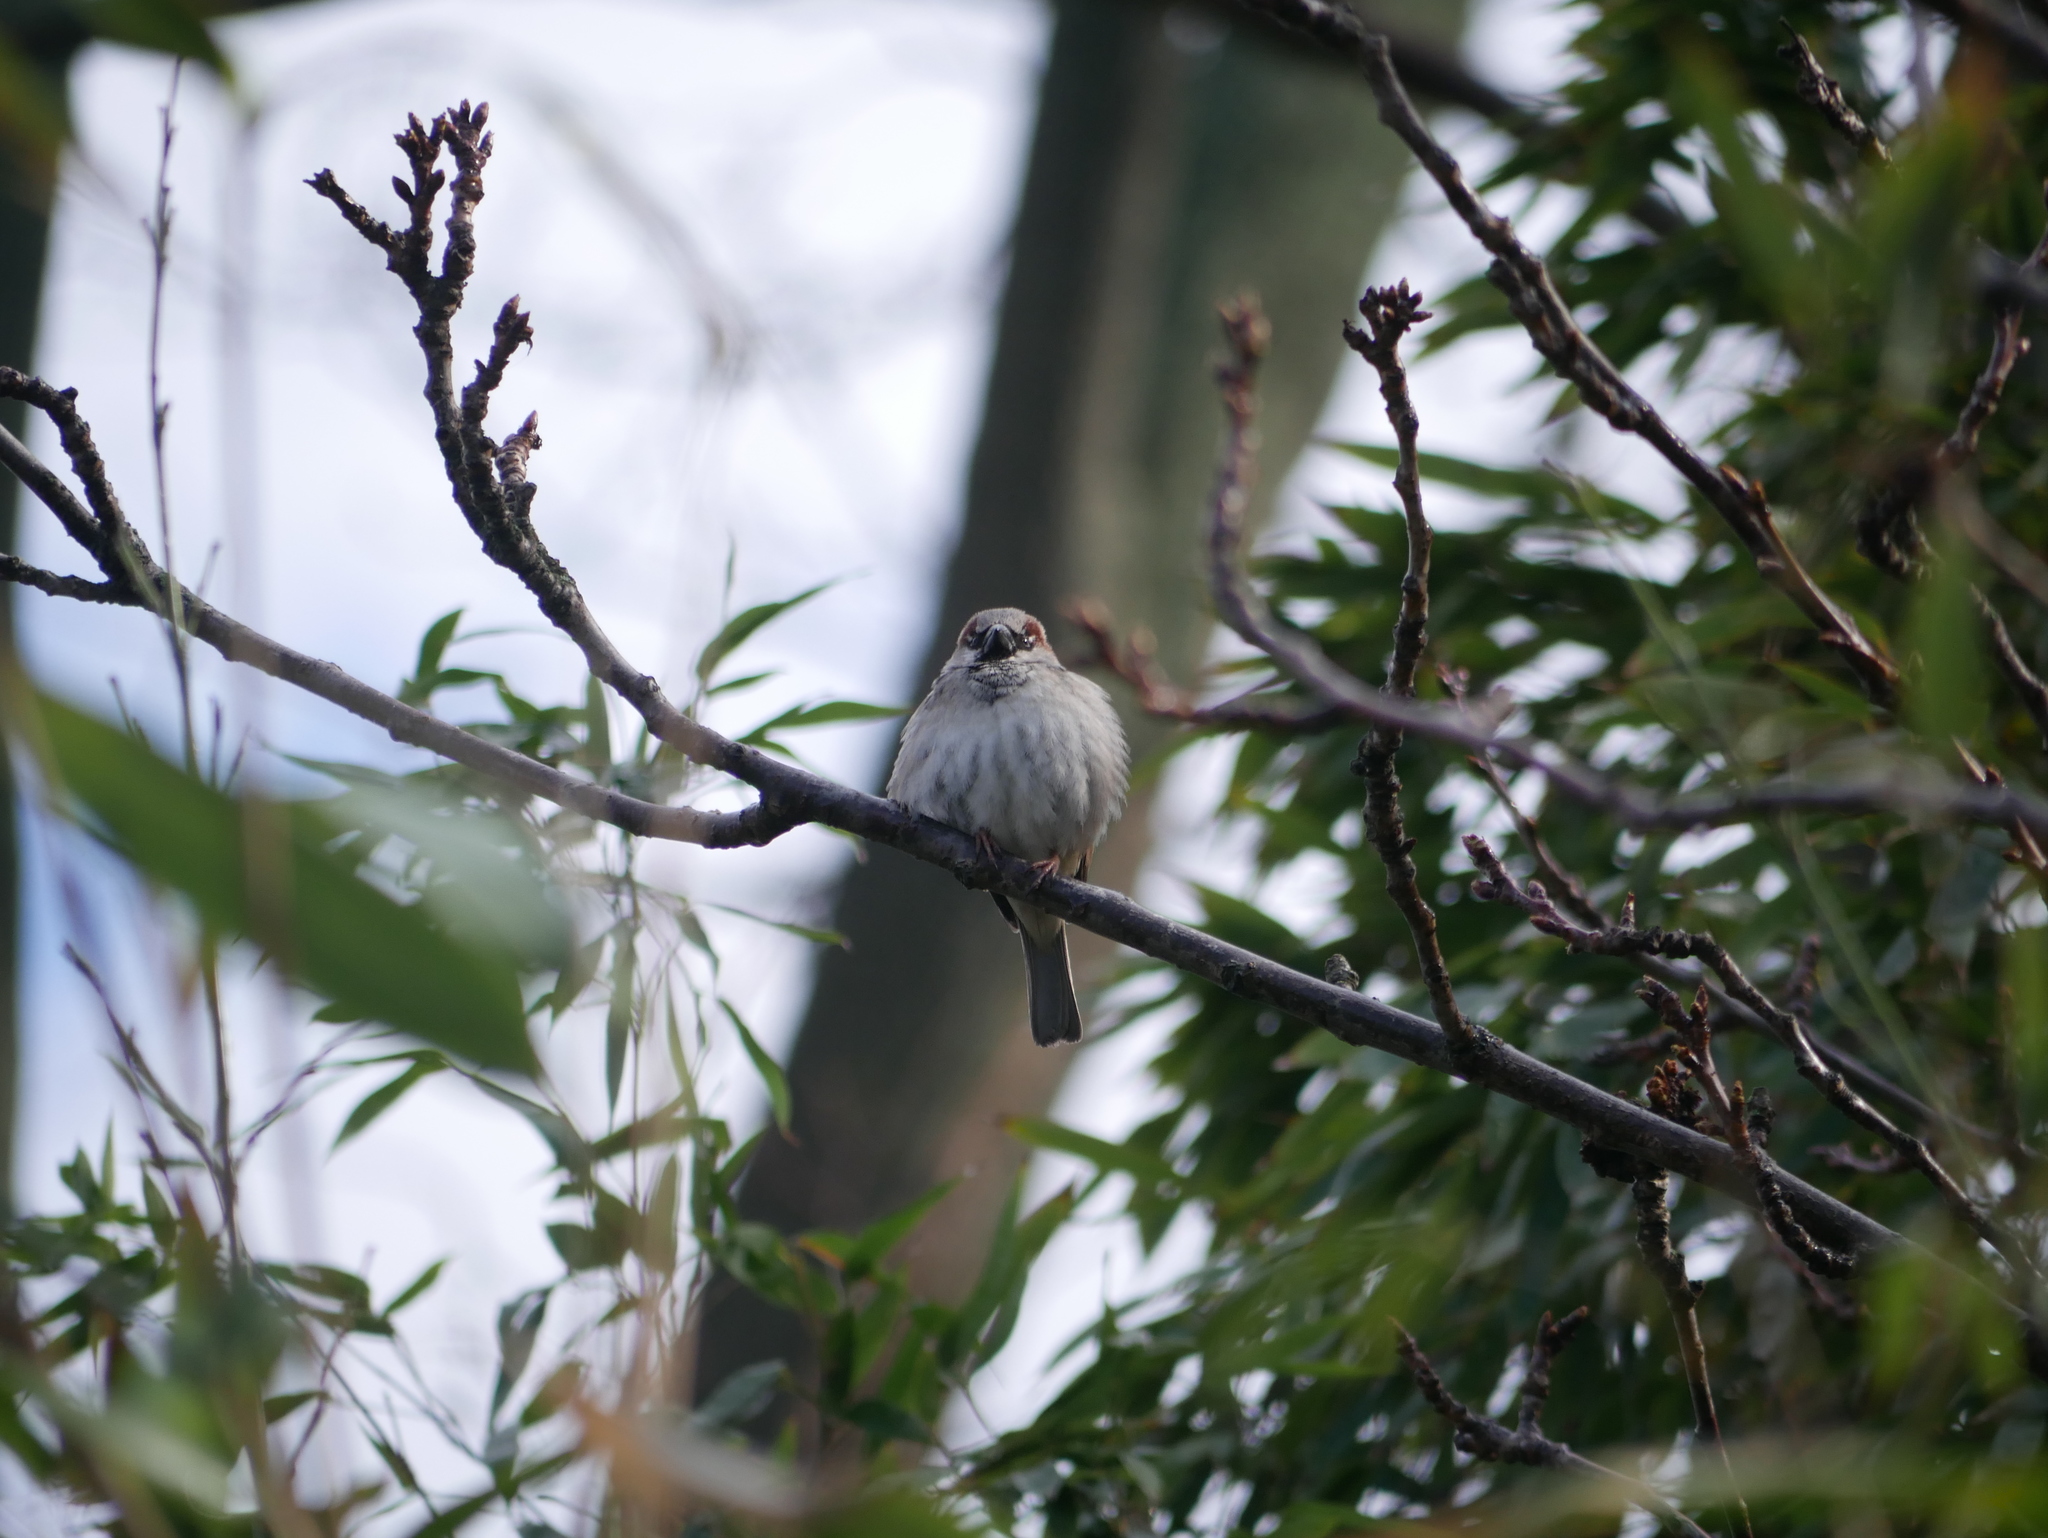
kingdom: Animalia
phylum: Chordata
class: Aves
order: Passeriformes
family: Passeridae
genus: Passer
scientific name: Passer domesticus
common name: House sparrow
